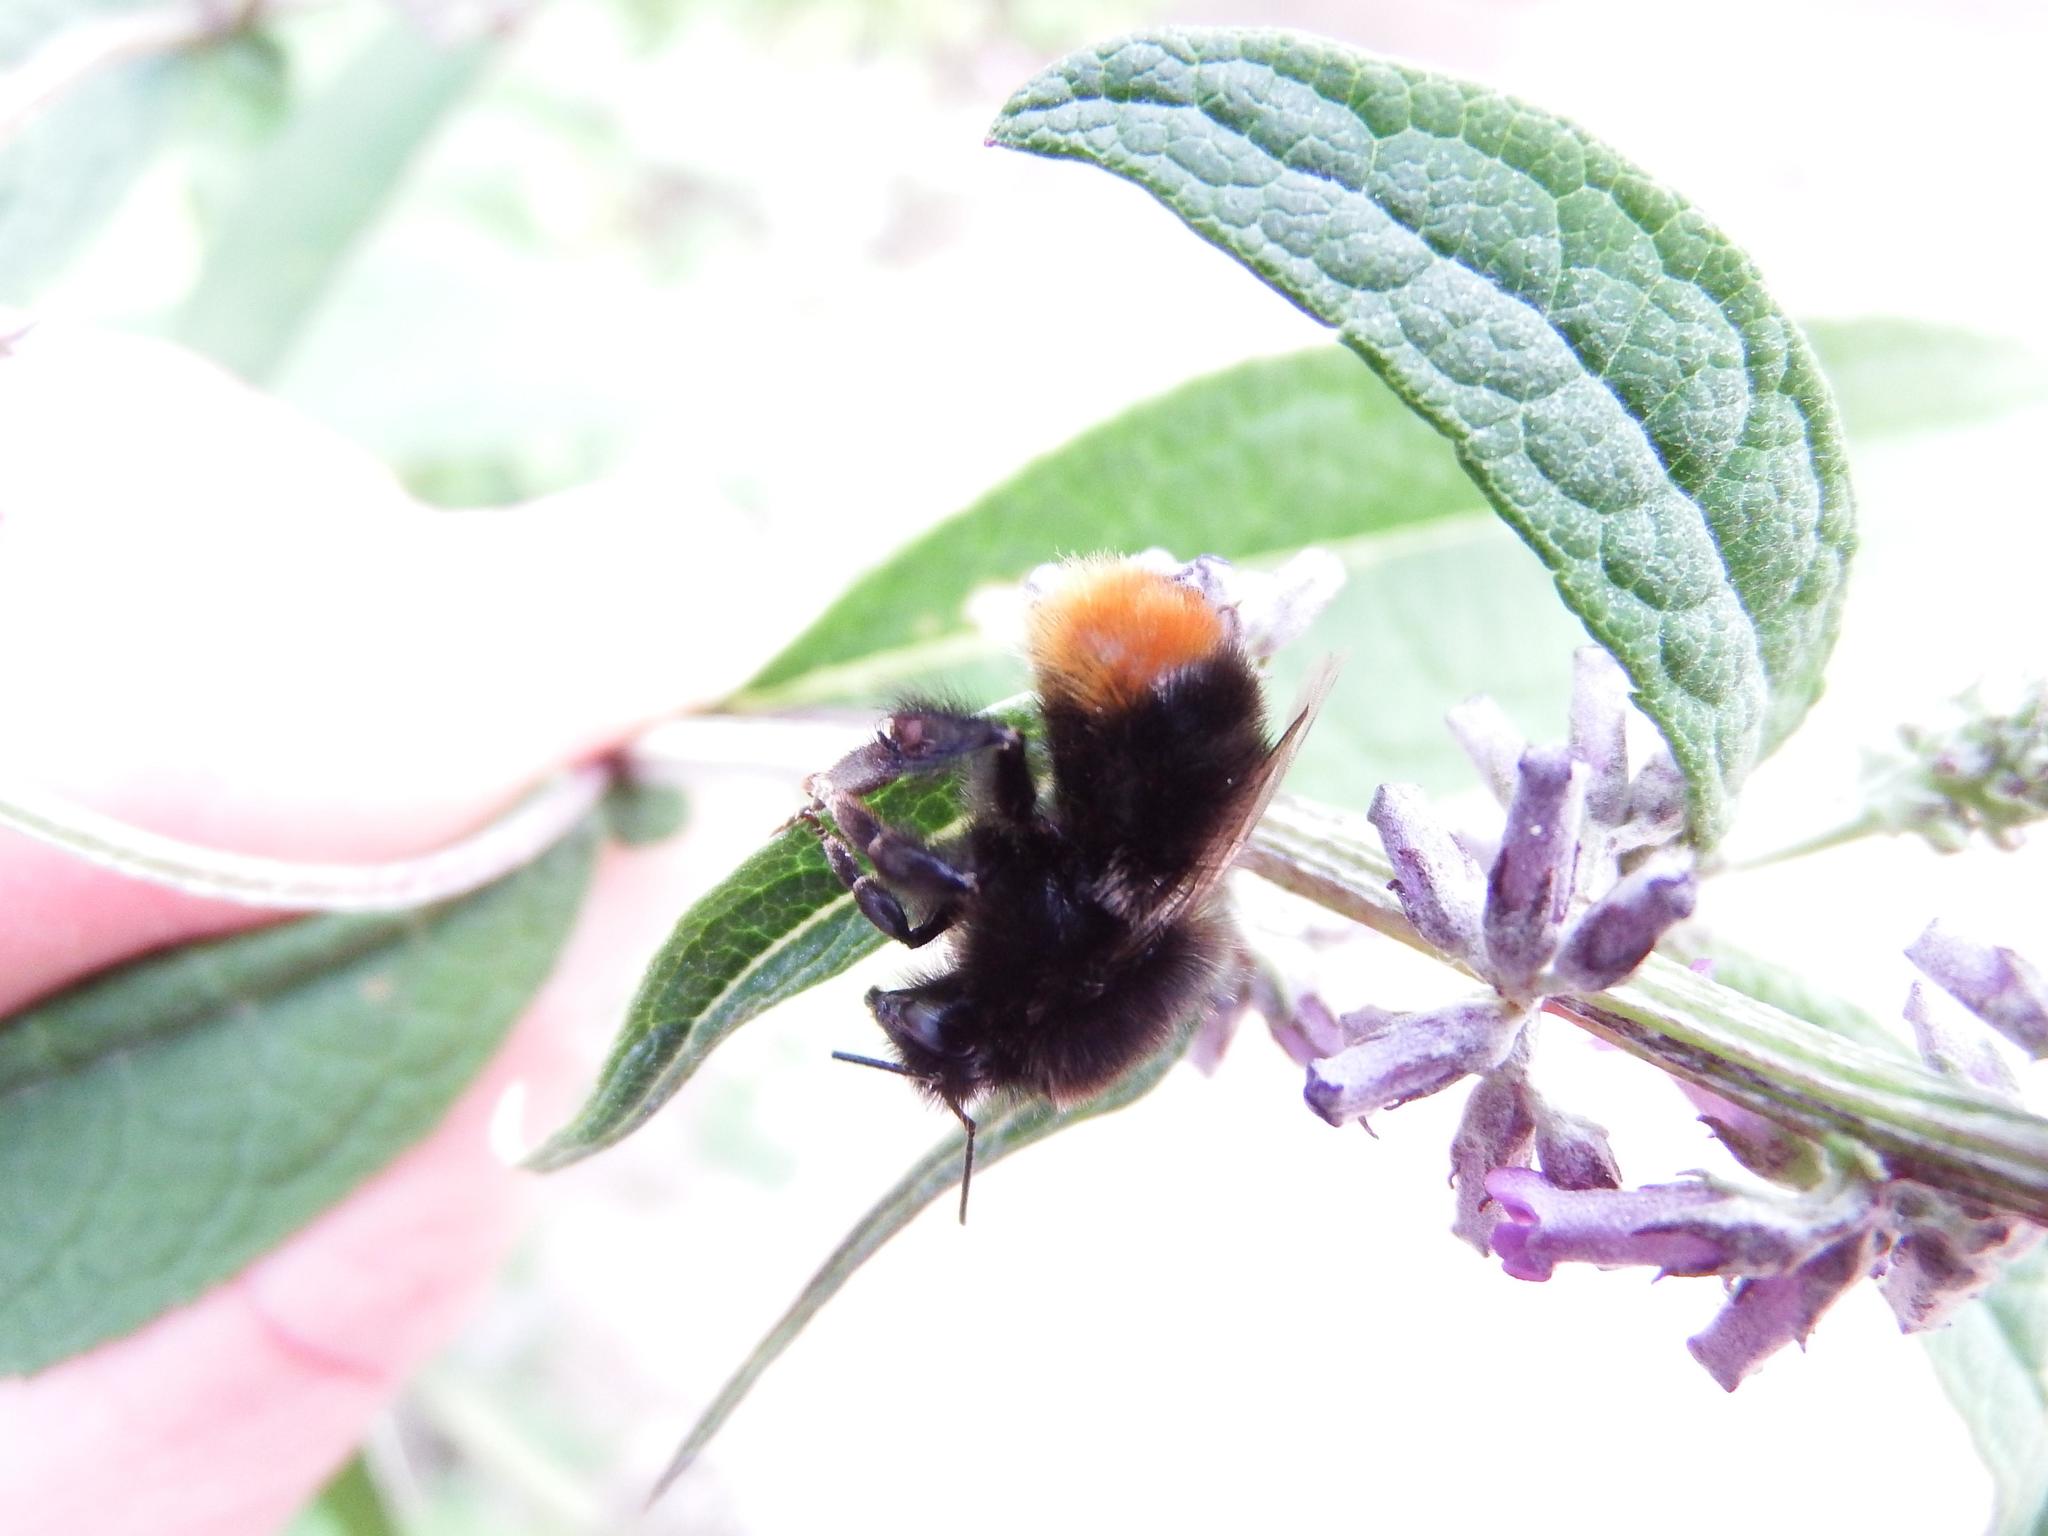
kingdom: Animalia
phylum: Arthropoda
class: Insecta
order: Hymenoptera
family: Apidae
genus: Bombus
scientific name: Bombus lapidarius
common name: Large red-tailed humble-bee
